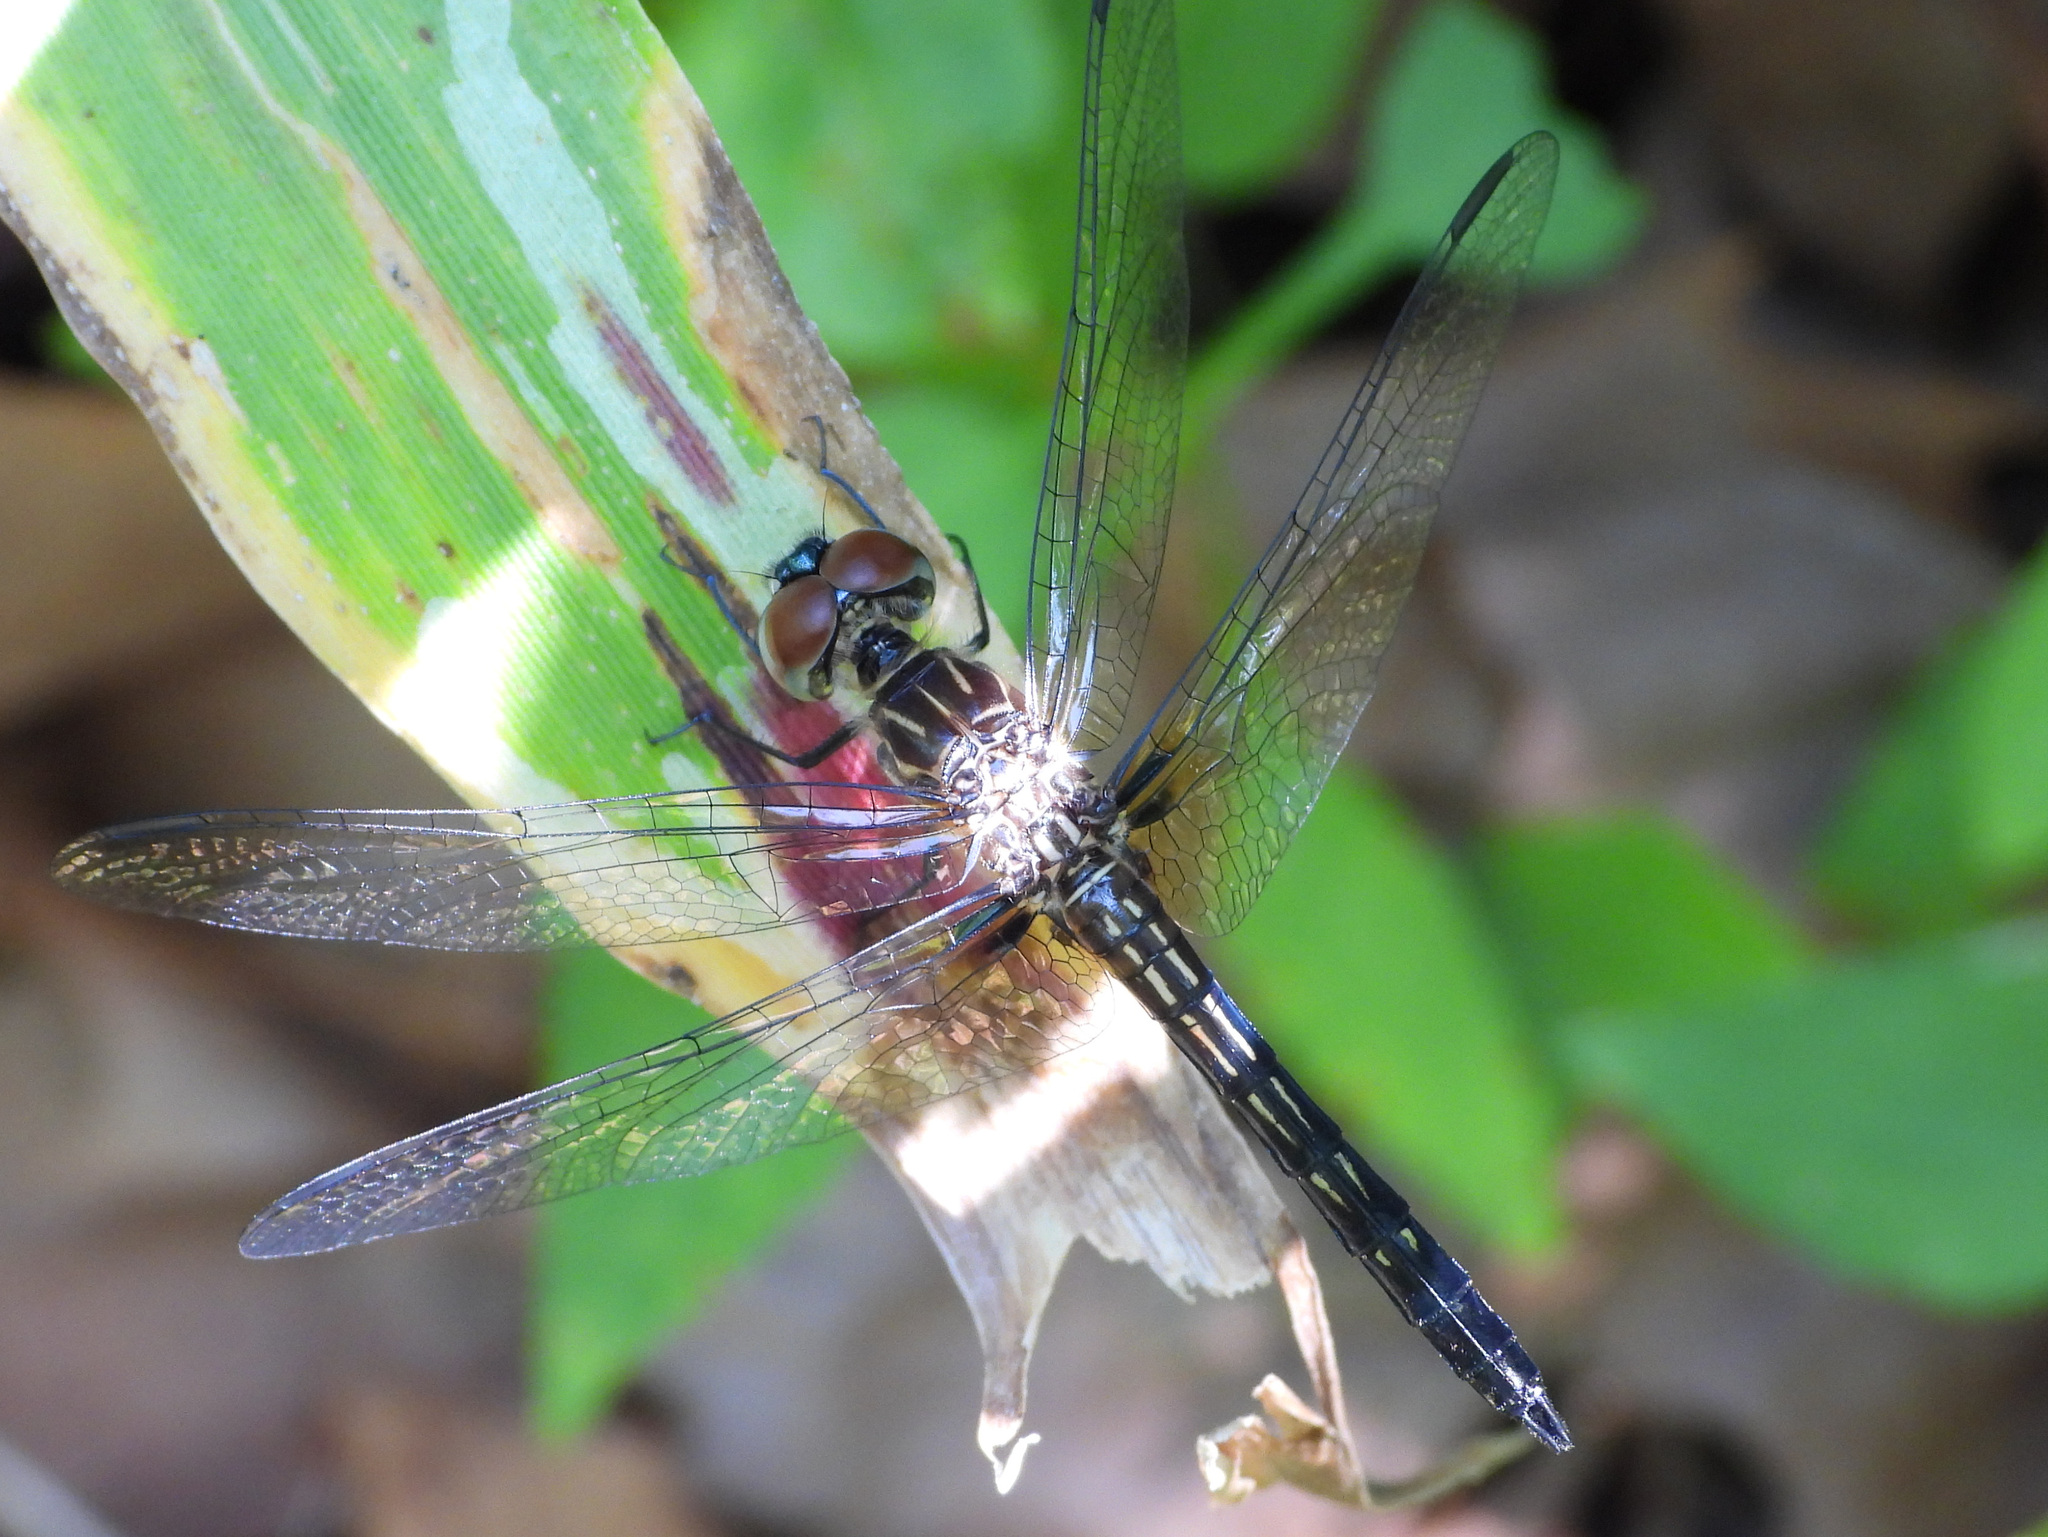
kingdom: Animalia
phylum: Arthropoda
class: Insecta
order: Odonata
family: Libellulidae
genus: Pachydiplax
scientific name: Pachydiplax longipennis
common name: Blue dasher
